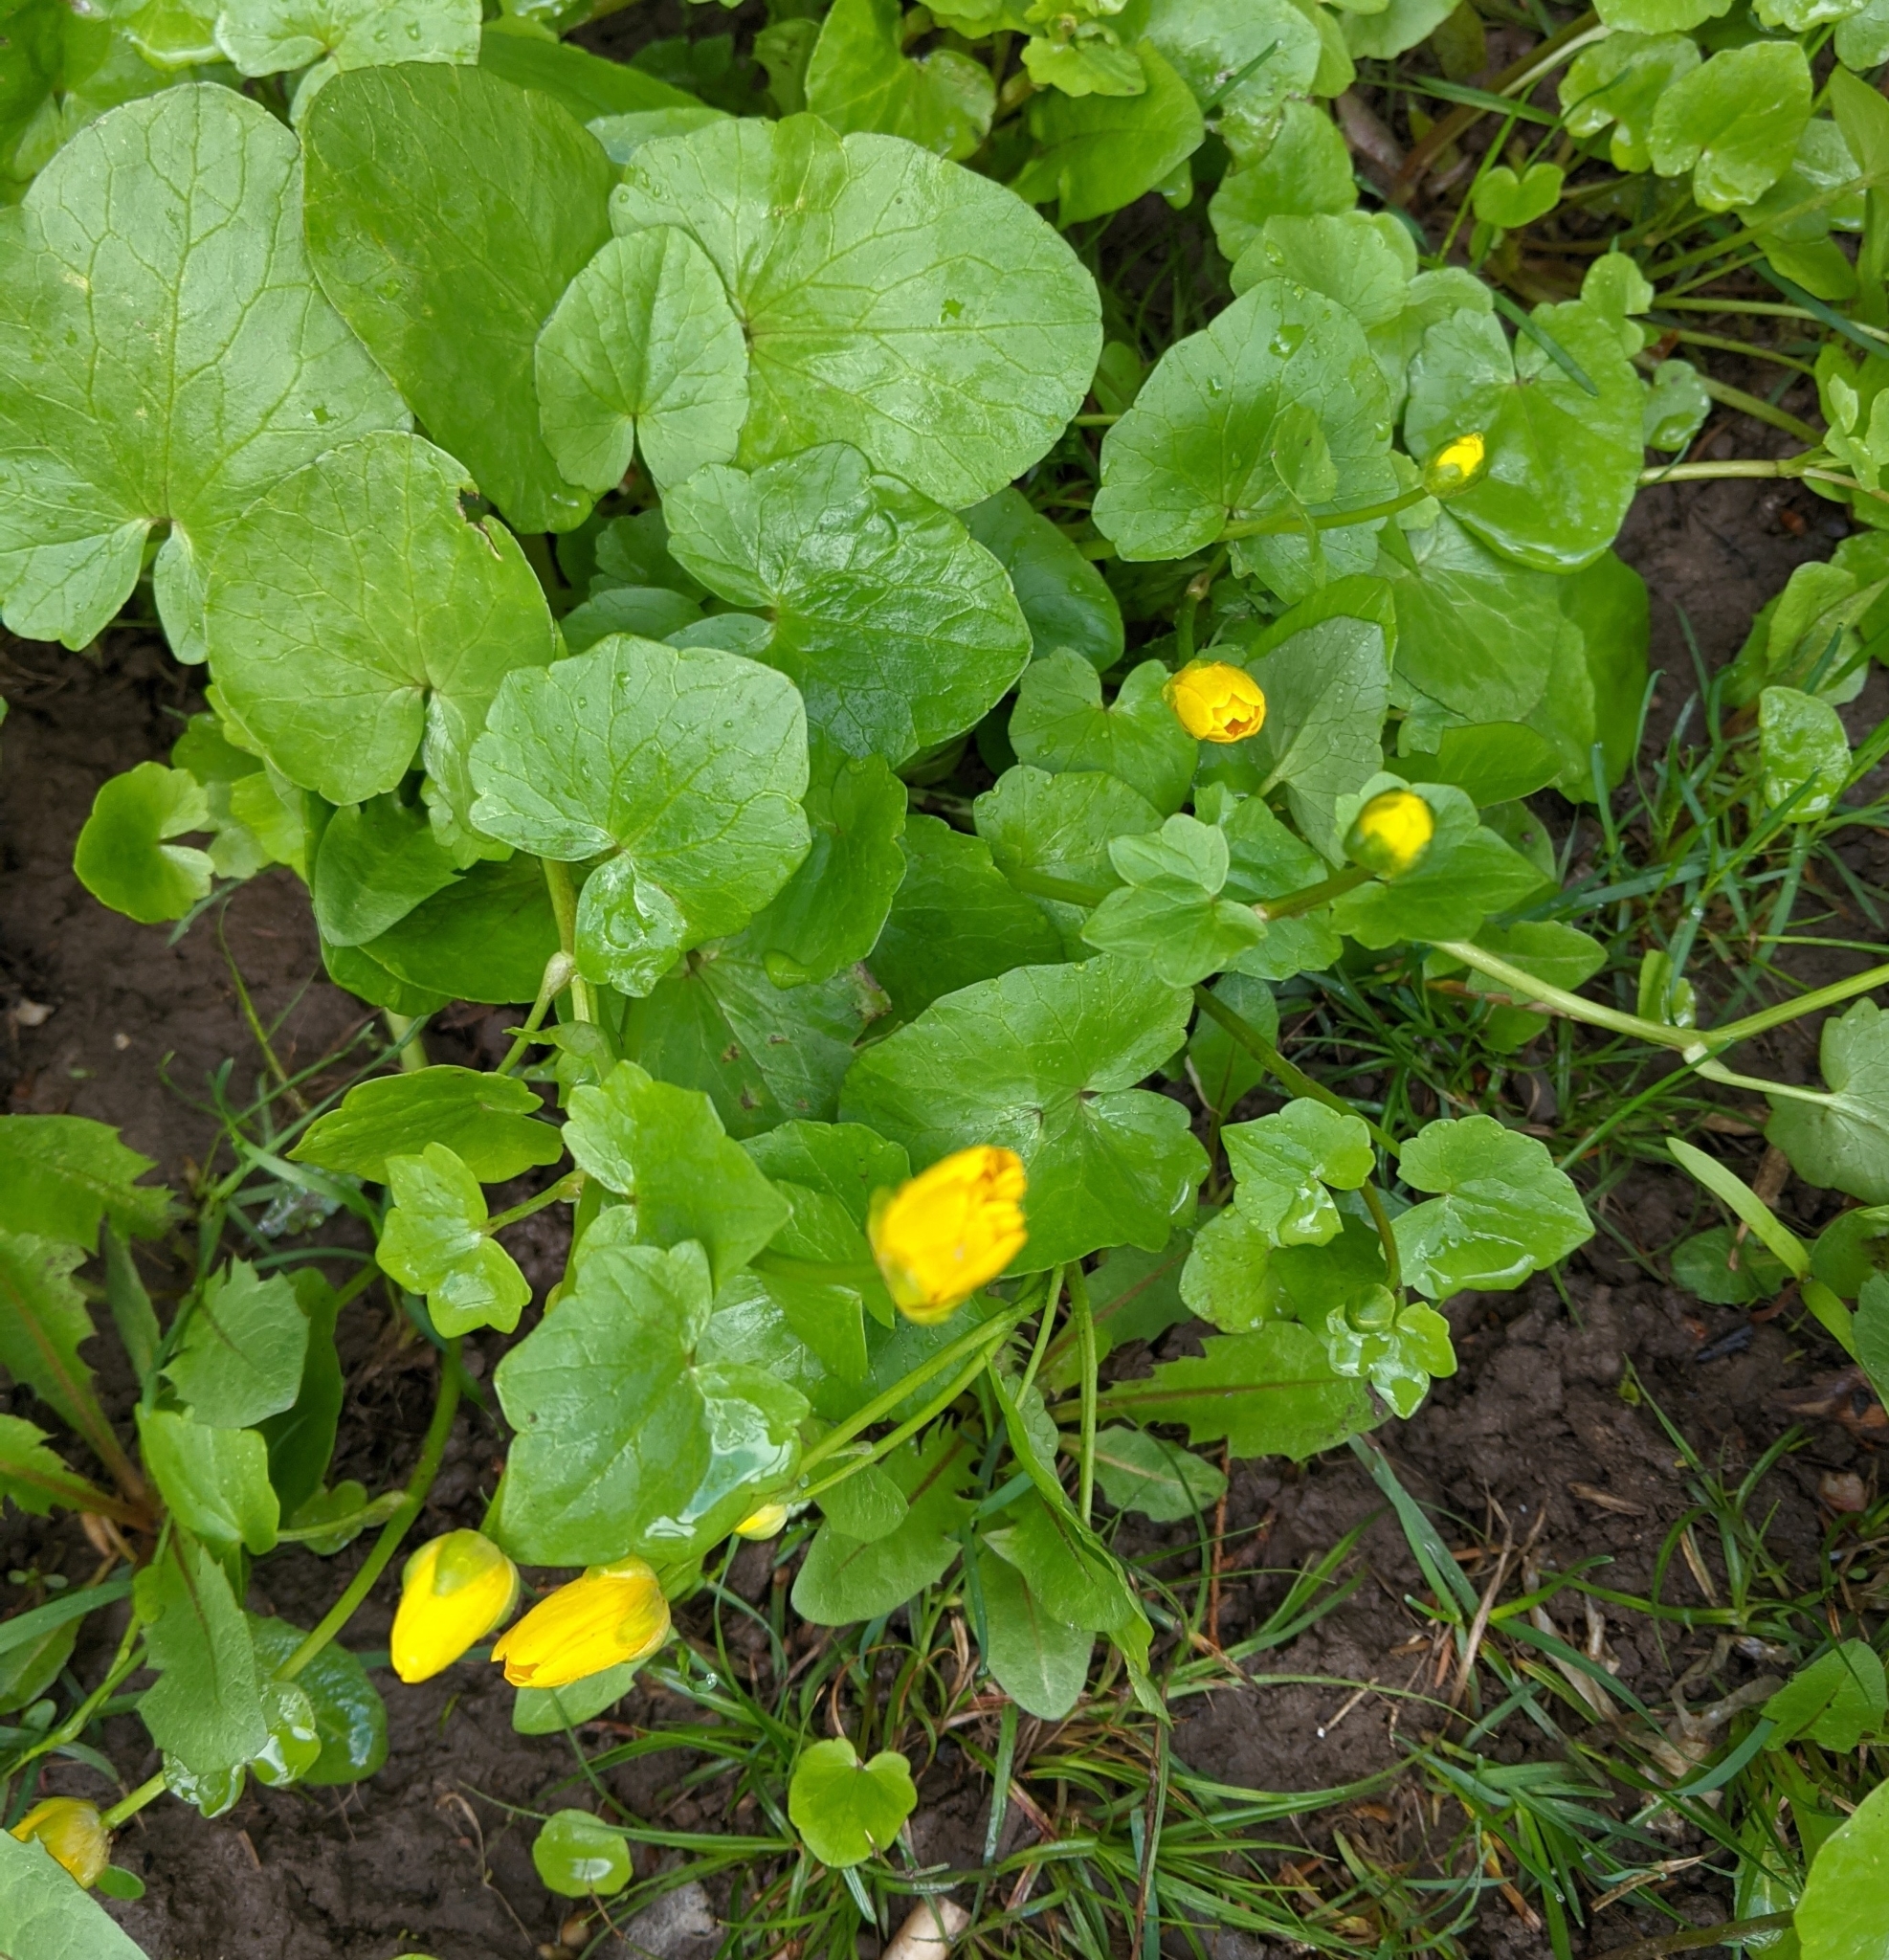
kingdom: Plantae
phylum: Tracheophyta
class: Magnoliopsida
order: Ranunculales
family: Ranunculaceae
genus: Ficaria
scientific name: Ficaria verna
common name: Lesser celandine
